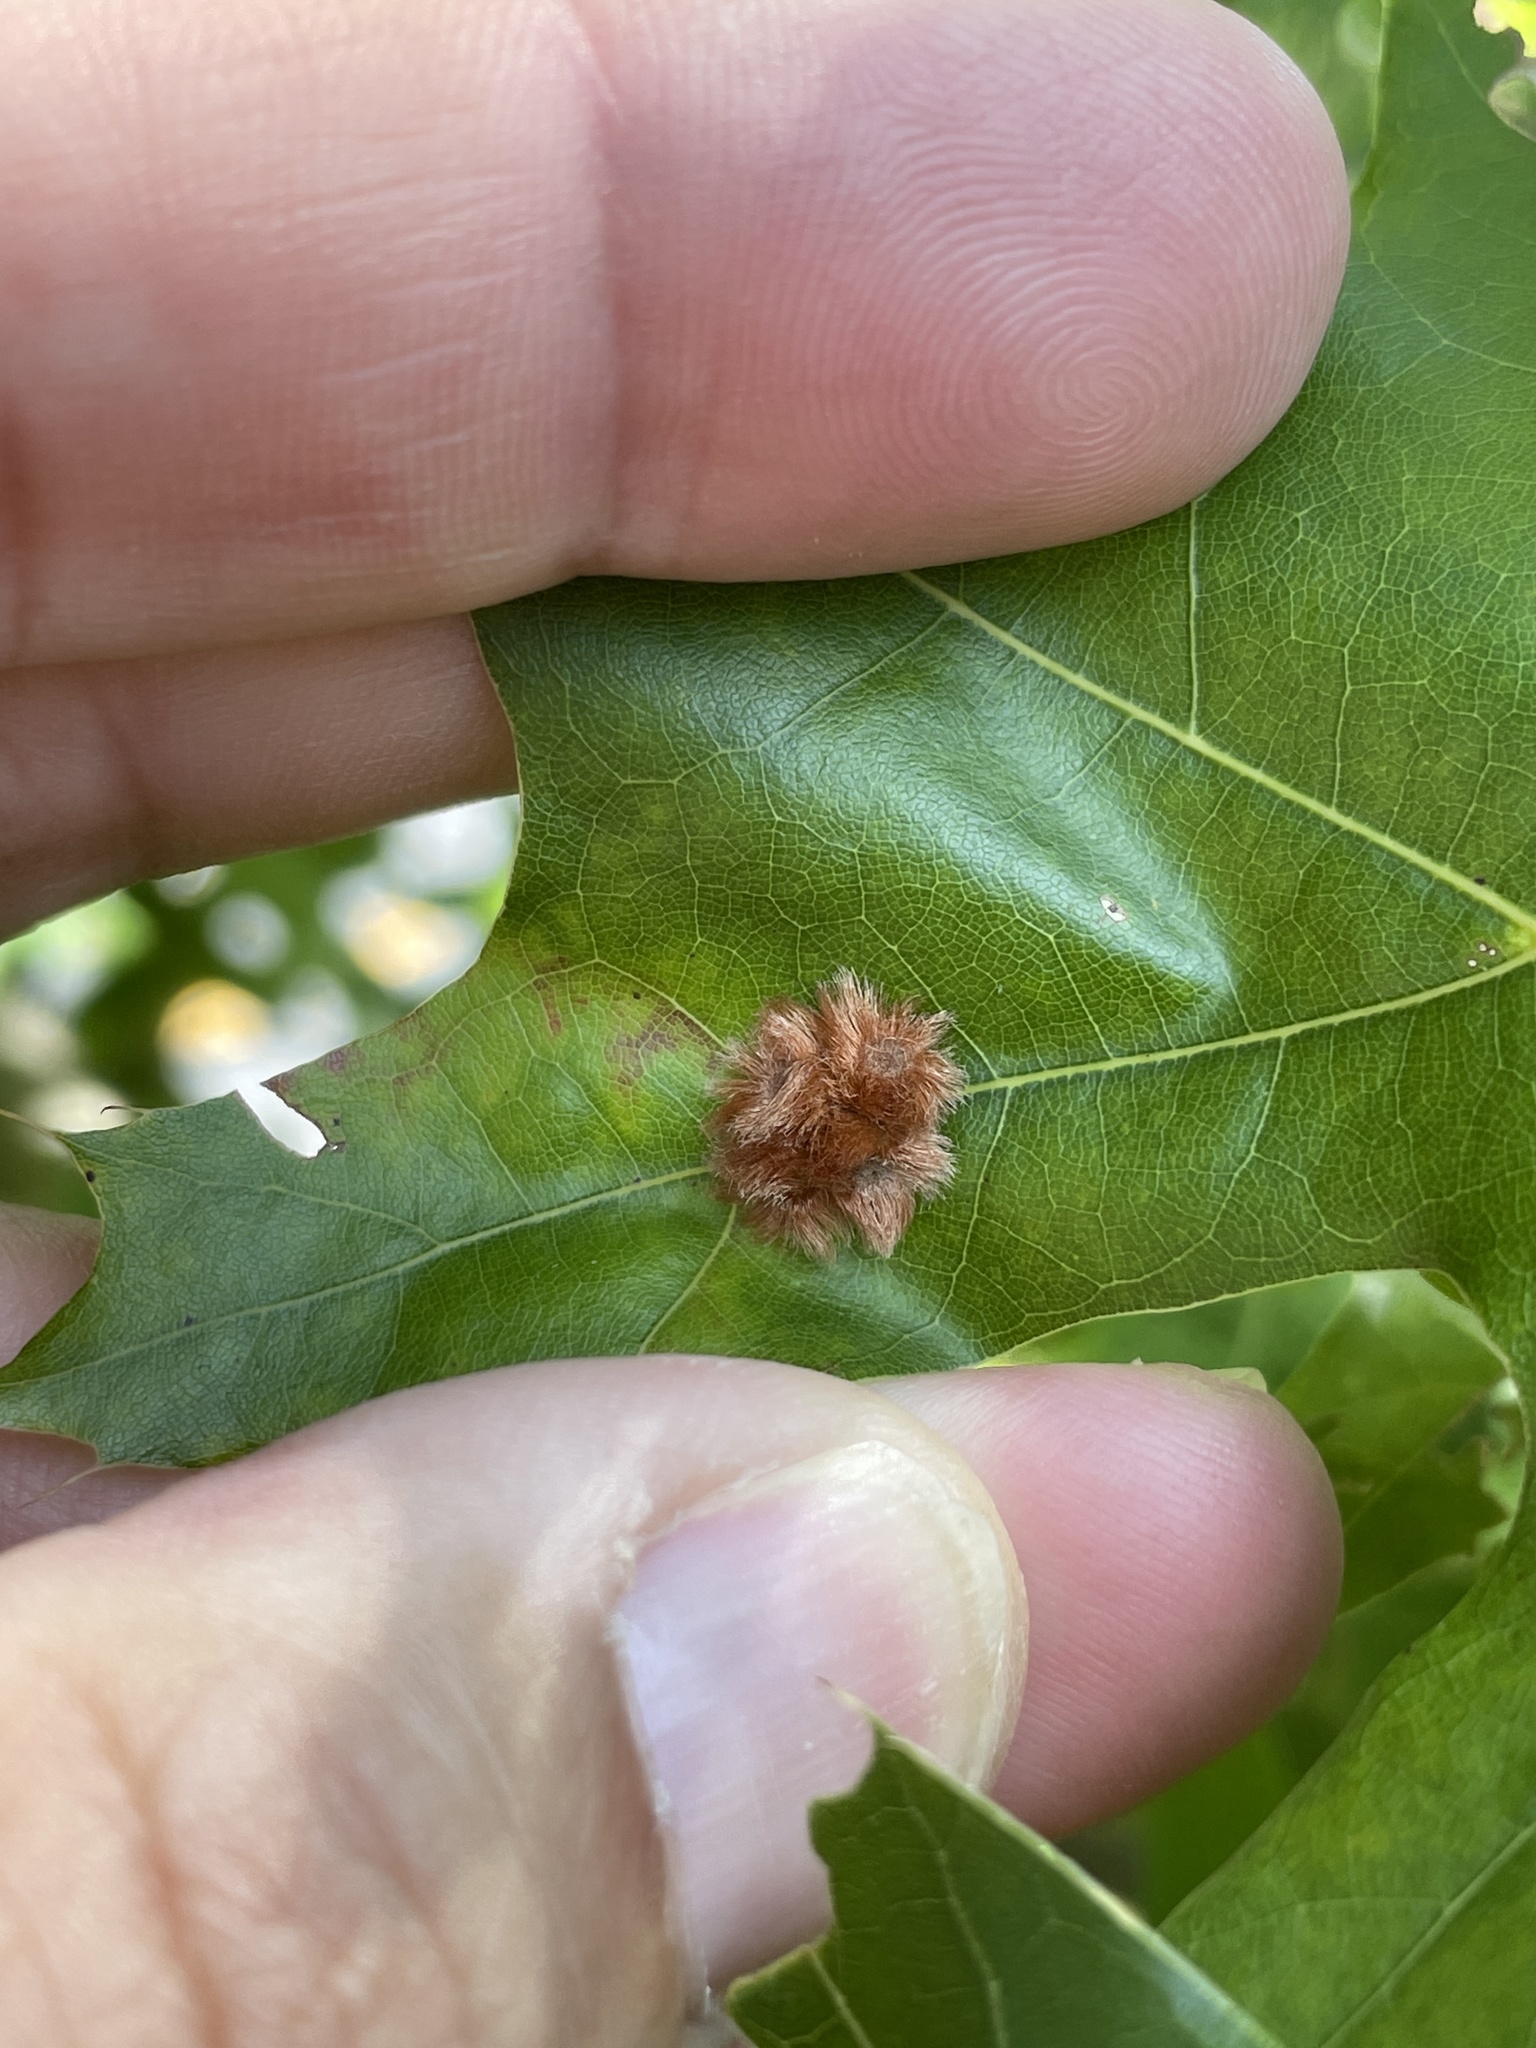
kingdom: Animalia
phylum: Arthropoda
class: Insecta
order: Hymenoptera
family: Cynipidae
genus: Callirhytis
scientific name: Callirhytis
